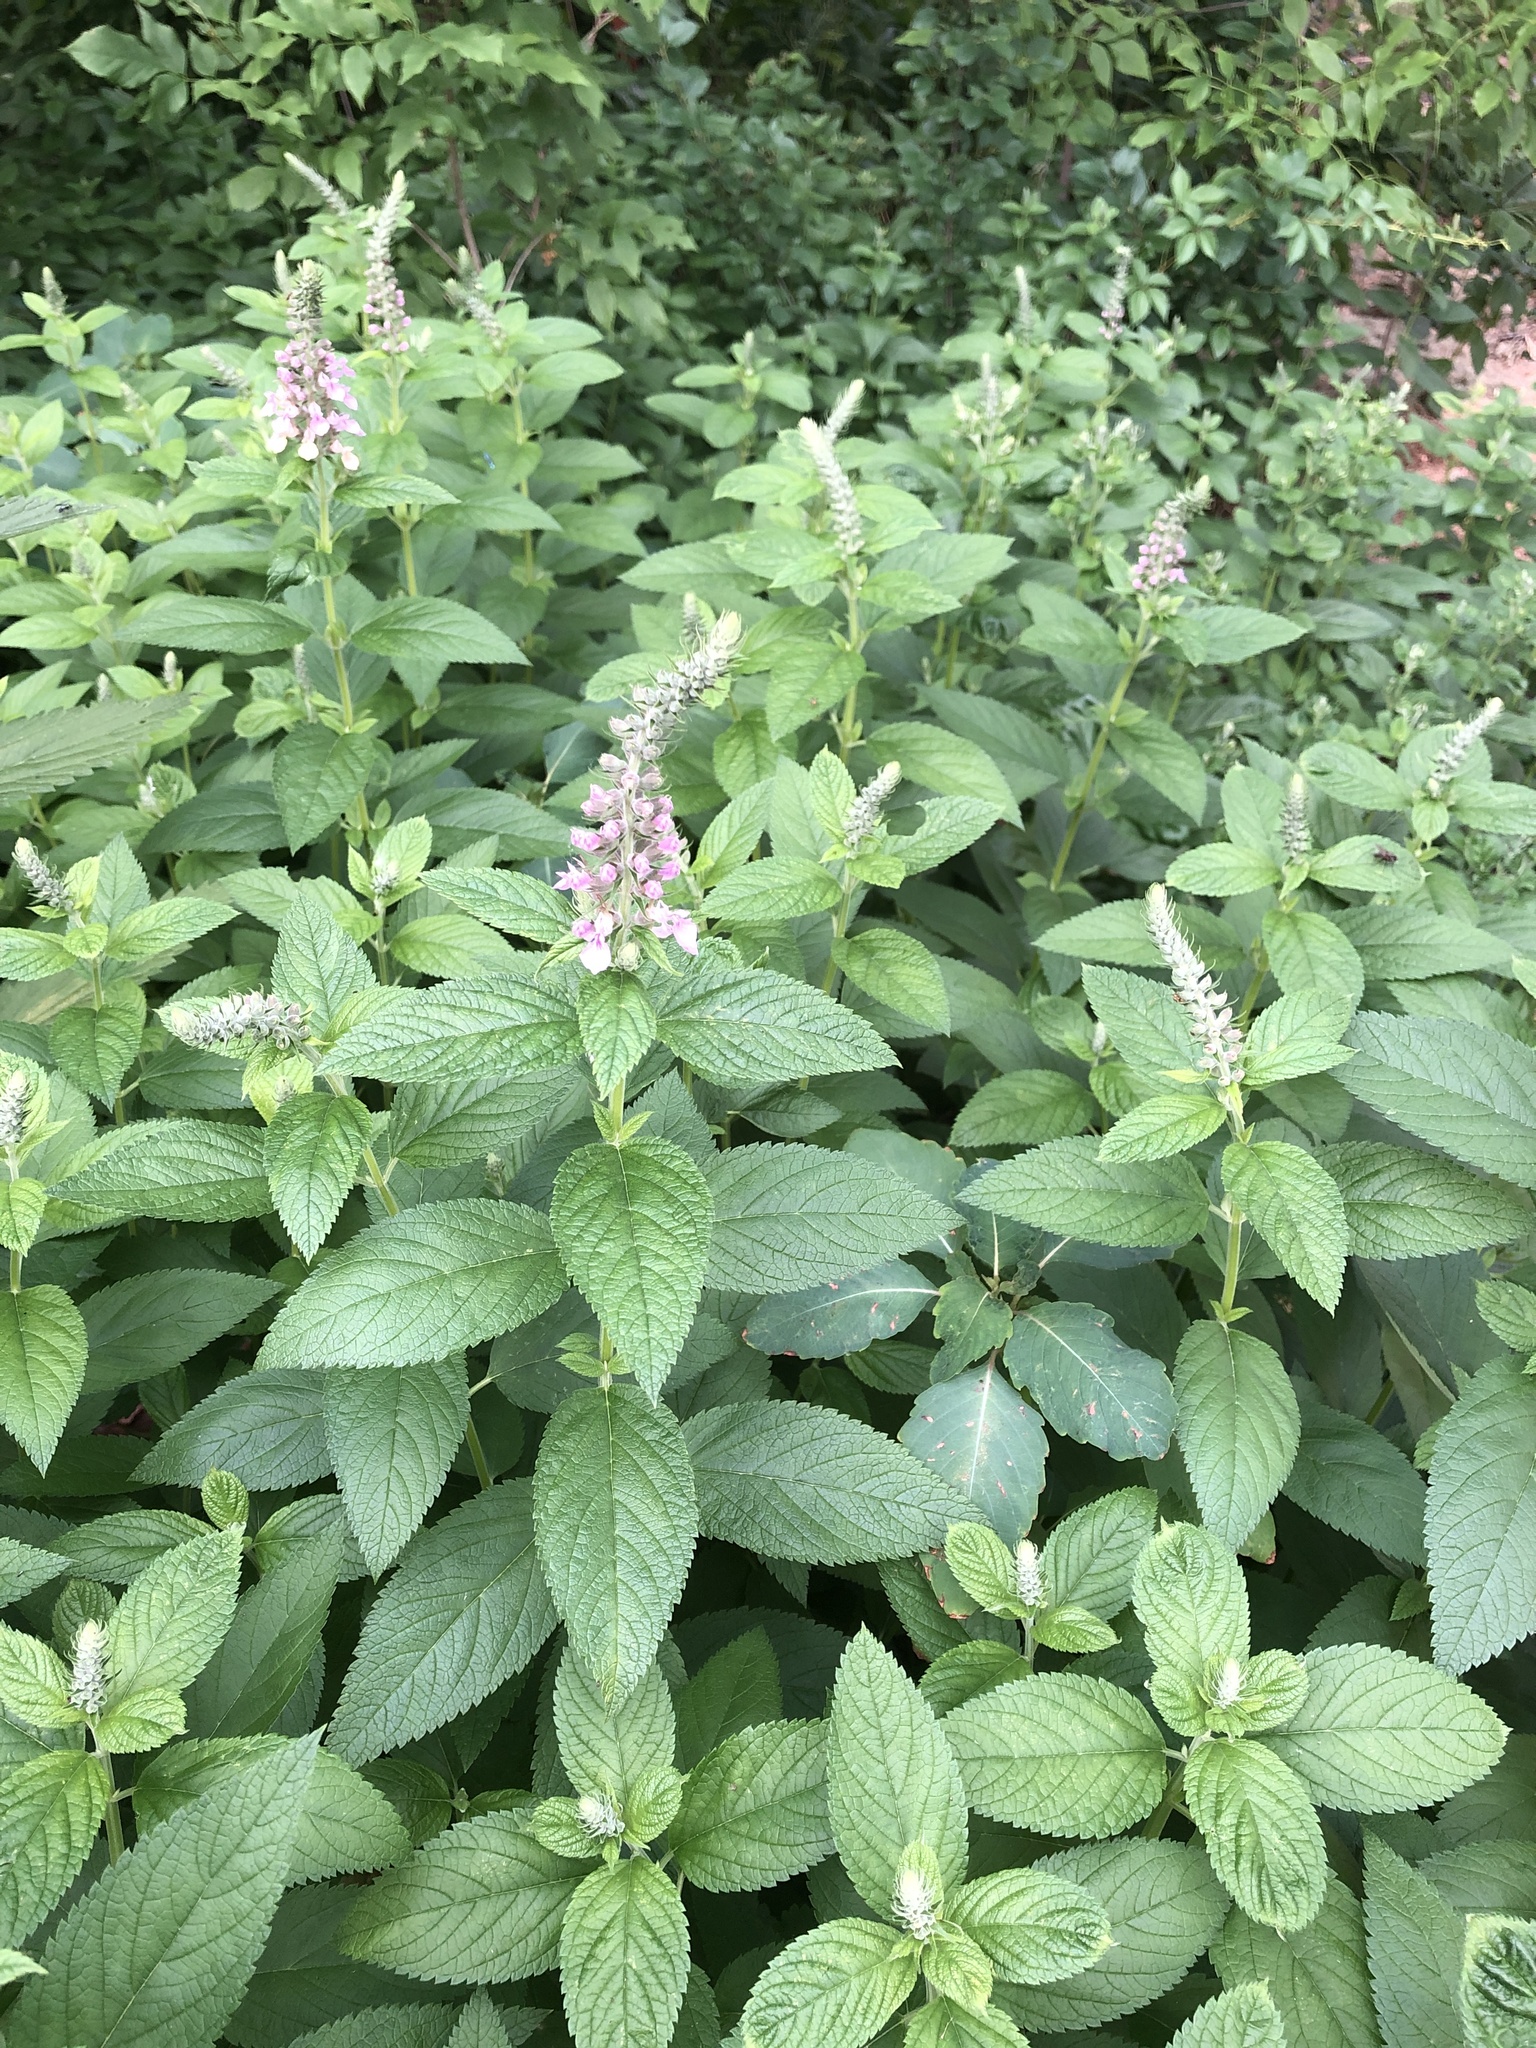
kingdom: Plantae
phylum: Tracheophyta
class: Magnoliopsida
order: Lamiales
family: Lamiaceae
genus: Teucrium
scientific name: Teucrium canadense
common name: American germander
